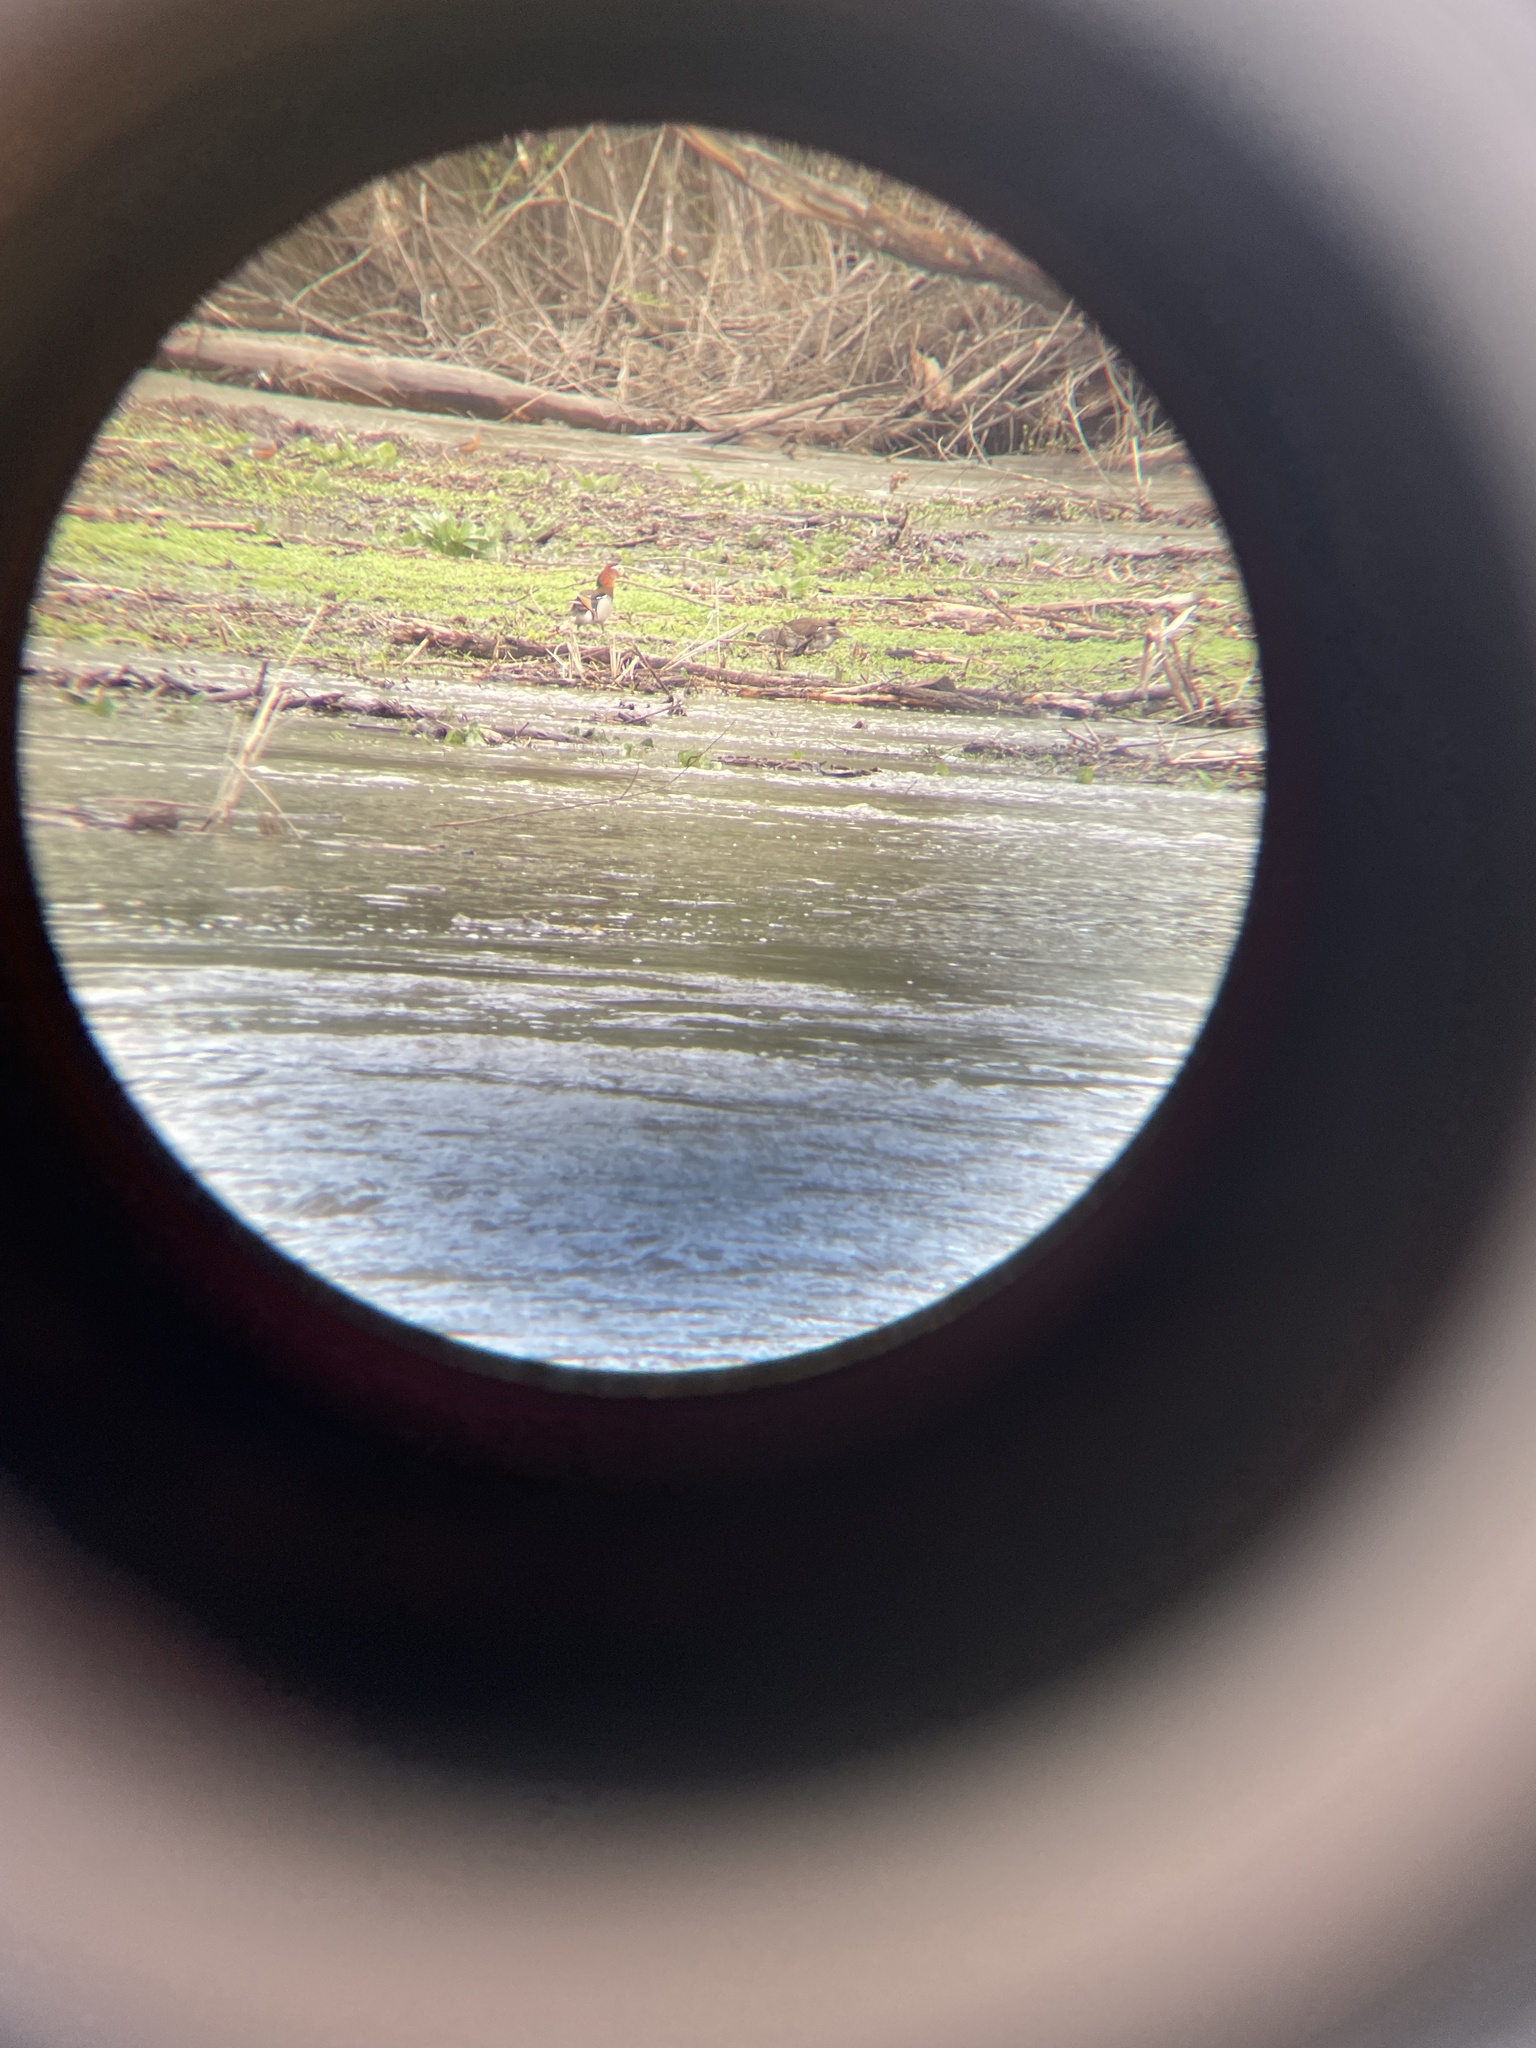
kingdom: Animalia
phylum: Chordata
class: Aves
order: Anseriformes
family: Anatidae
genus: Aix
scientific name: Aix galericulata
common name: Mandarin duck
